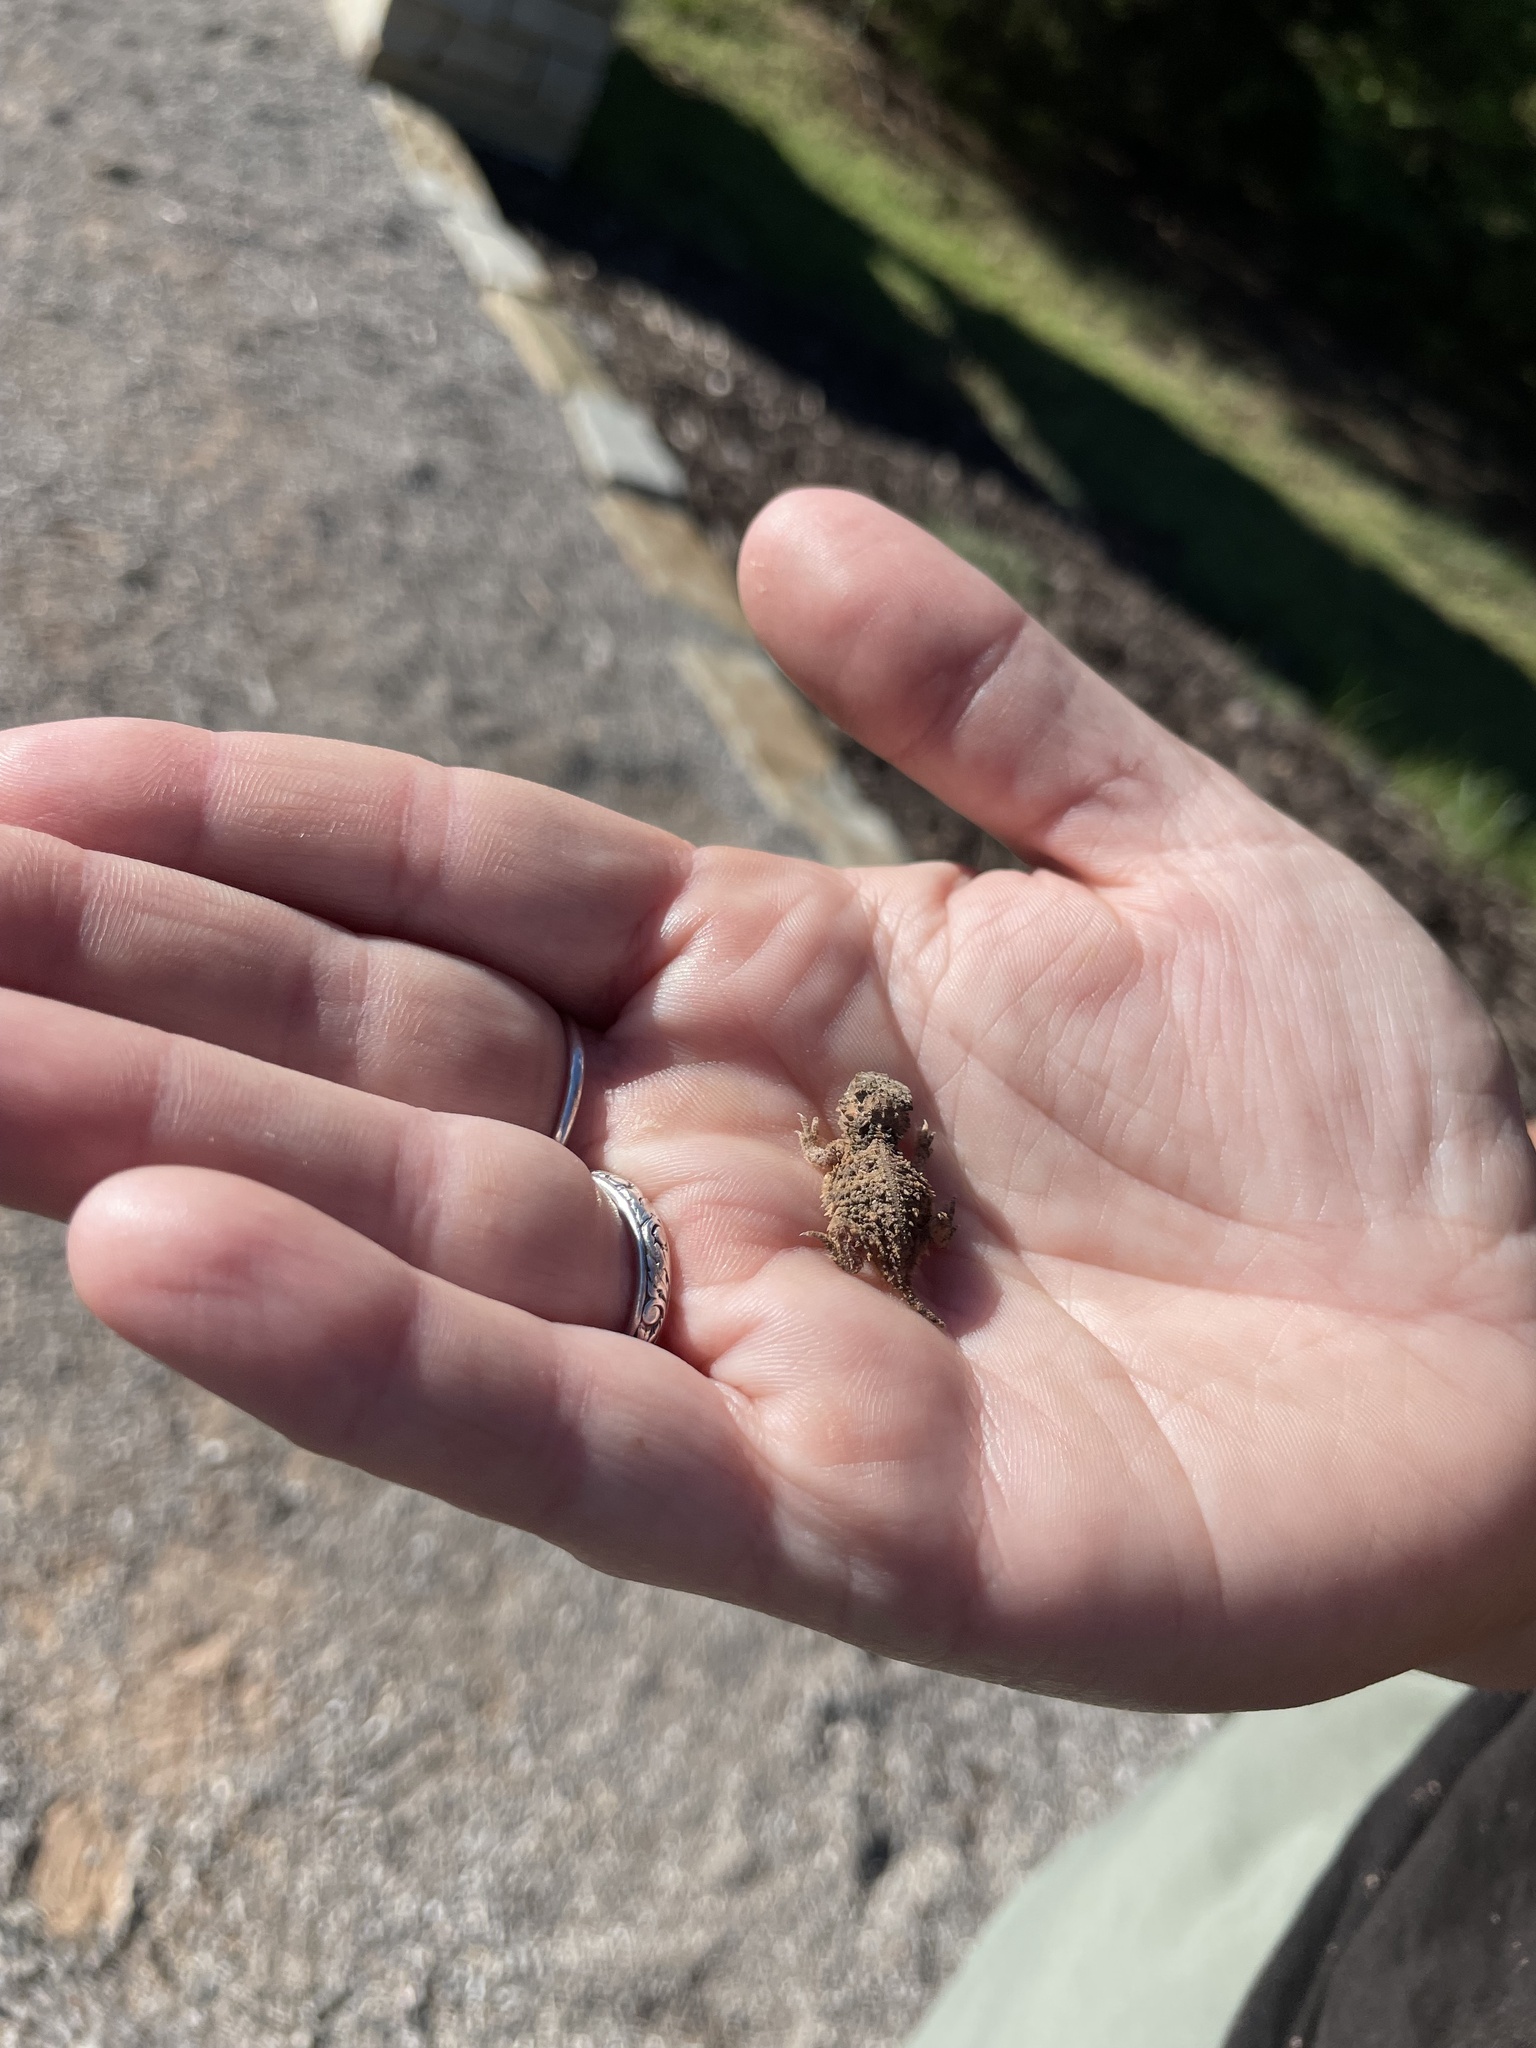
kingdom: Animalia
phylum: Chordata
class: Squamata
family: Phrynosomatidae
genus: Phrynosoma
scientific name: Phrynosoma cornutum
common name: Texas horned lizard
